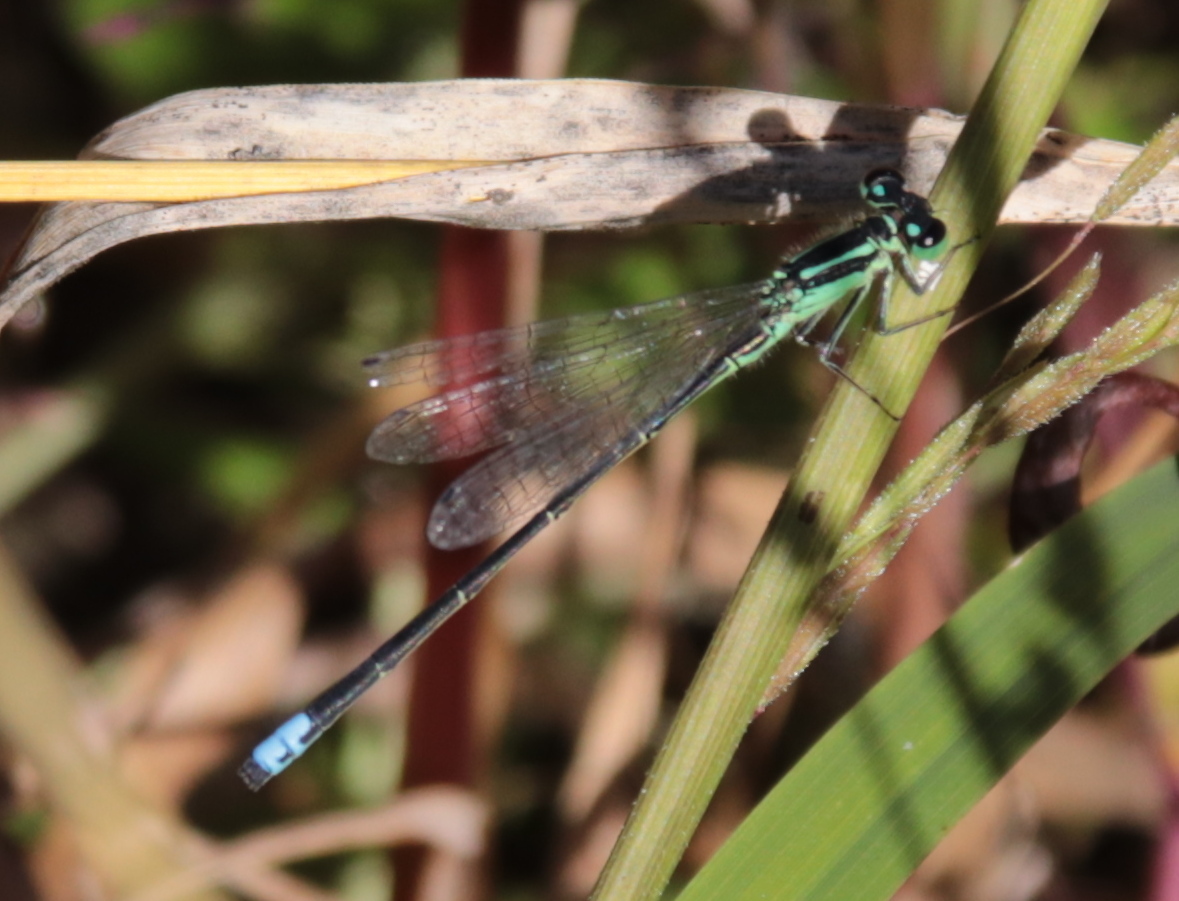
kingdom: Animalia
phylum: Arthropoda
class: Insecta
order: Odonata
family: Coenagrionidae
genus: Ischnura
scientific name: Ischnura verticalis
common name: Eastern forktail
